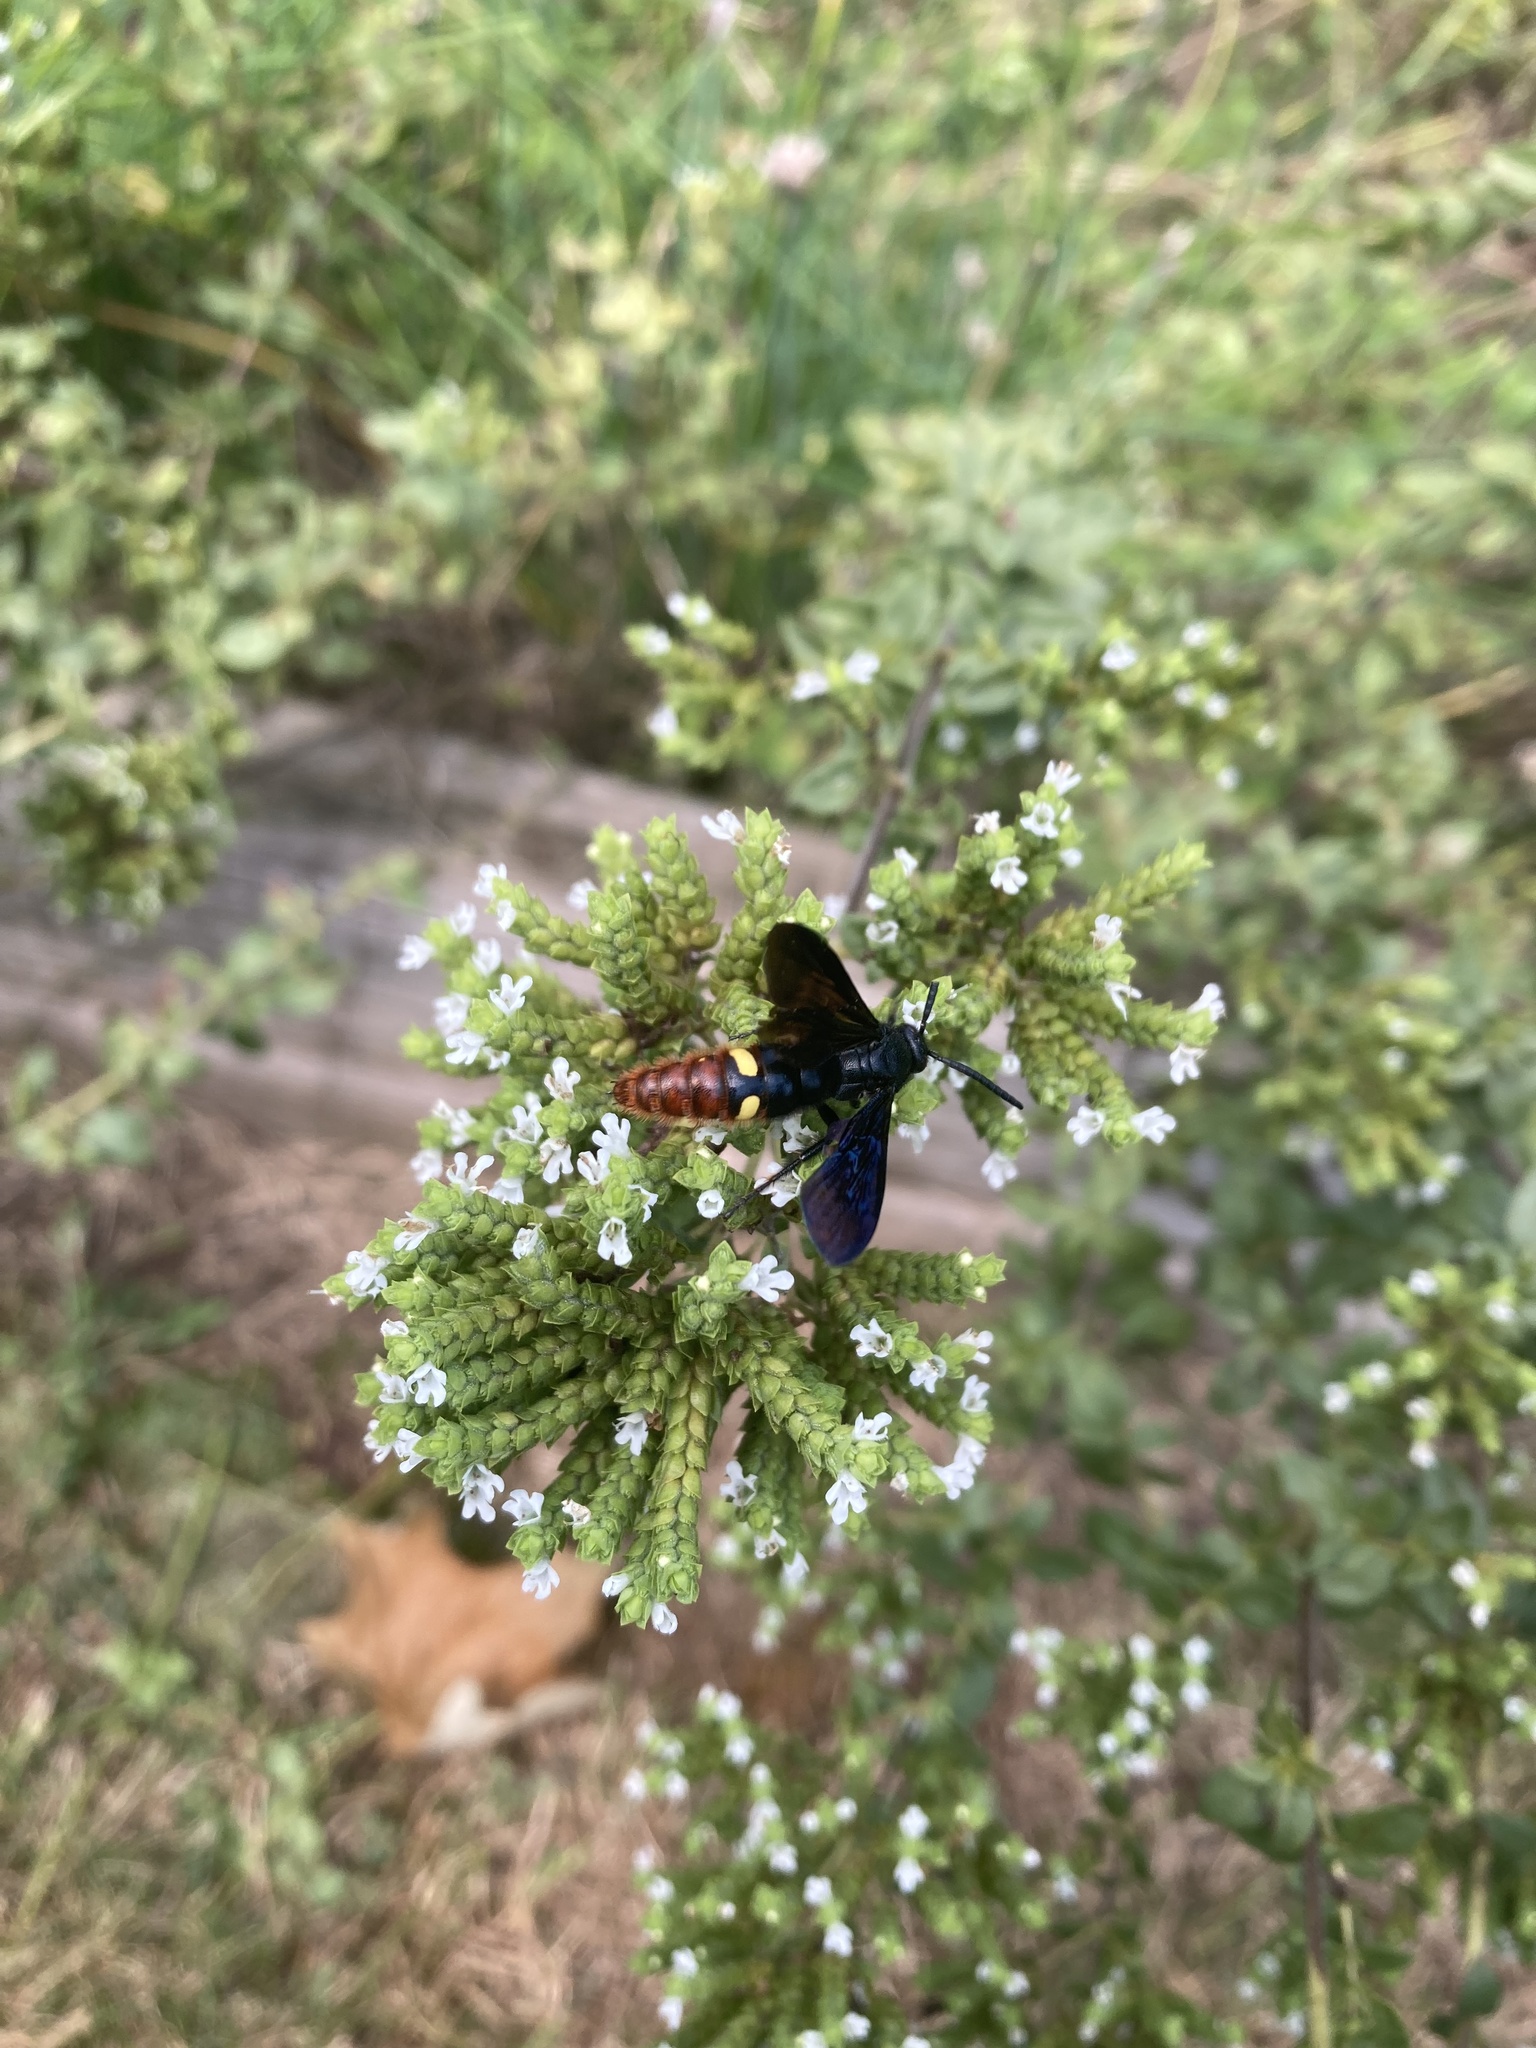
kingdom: Animalia
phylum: Arthropoda
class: Insecta
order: Hymenoptera
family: Scoliidae
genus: Scolia
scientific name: Scolia dubia
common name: Blue-winged scoliid wasp
